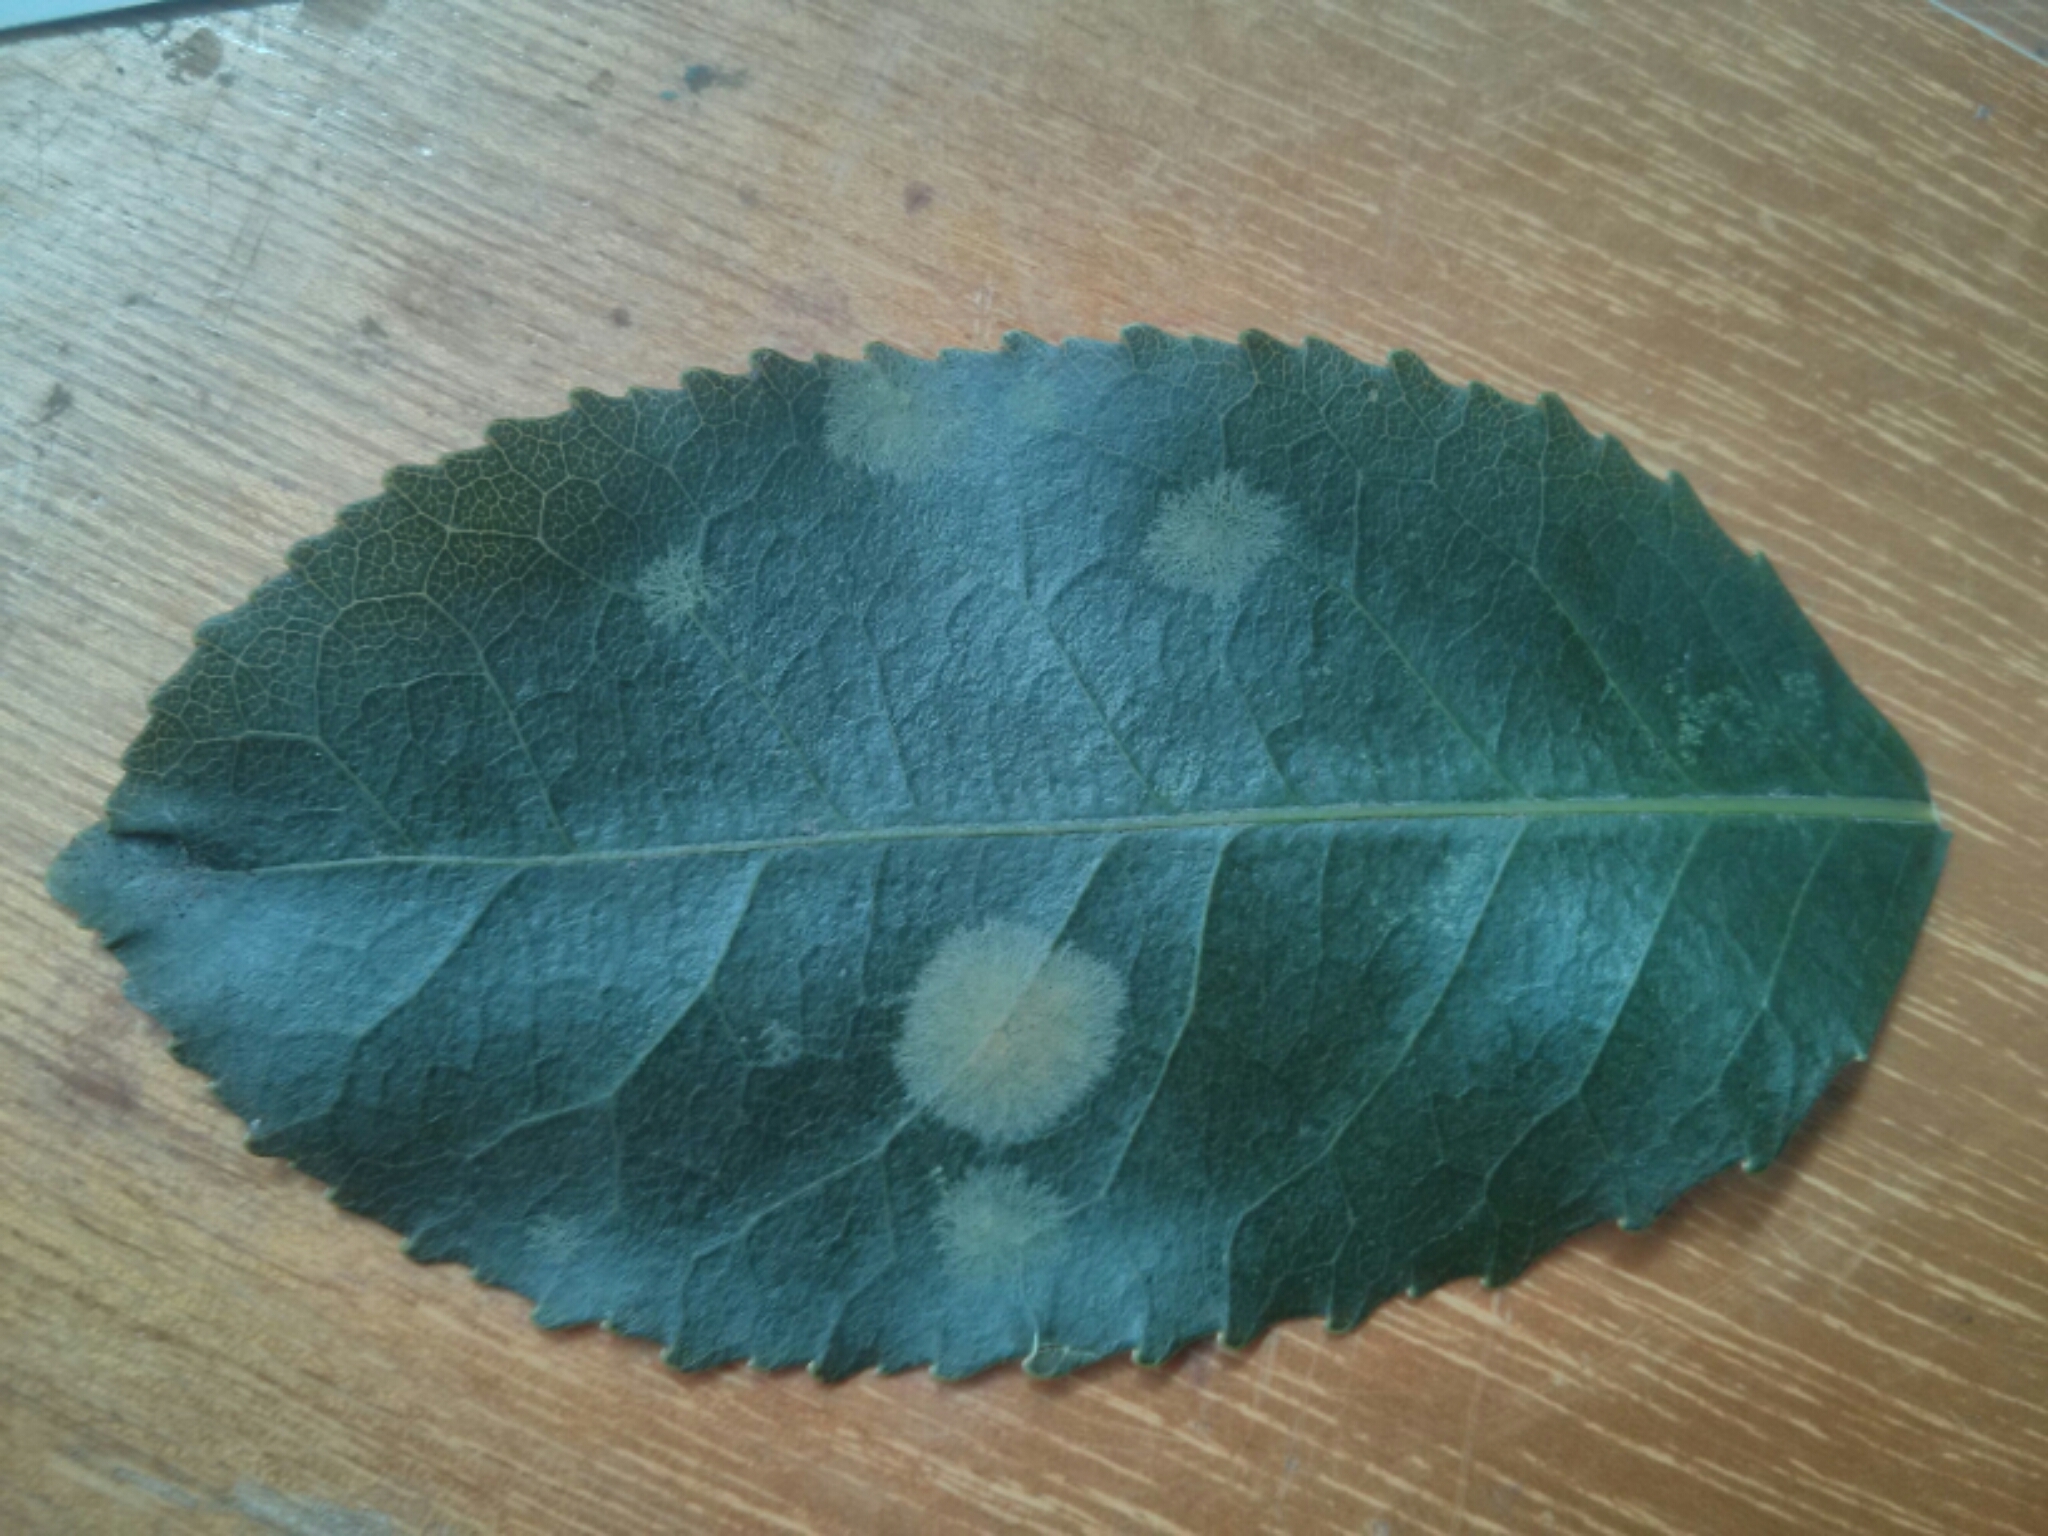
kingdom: Plantae
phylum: Chlorophyta
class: Ulvophyceae
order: Trentepohliales
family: Trentepohliaceae
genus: Cephaleuros
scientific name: Cephaleuros
